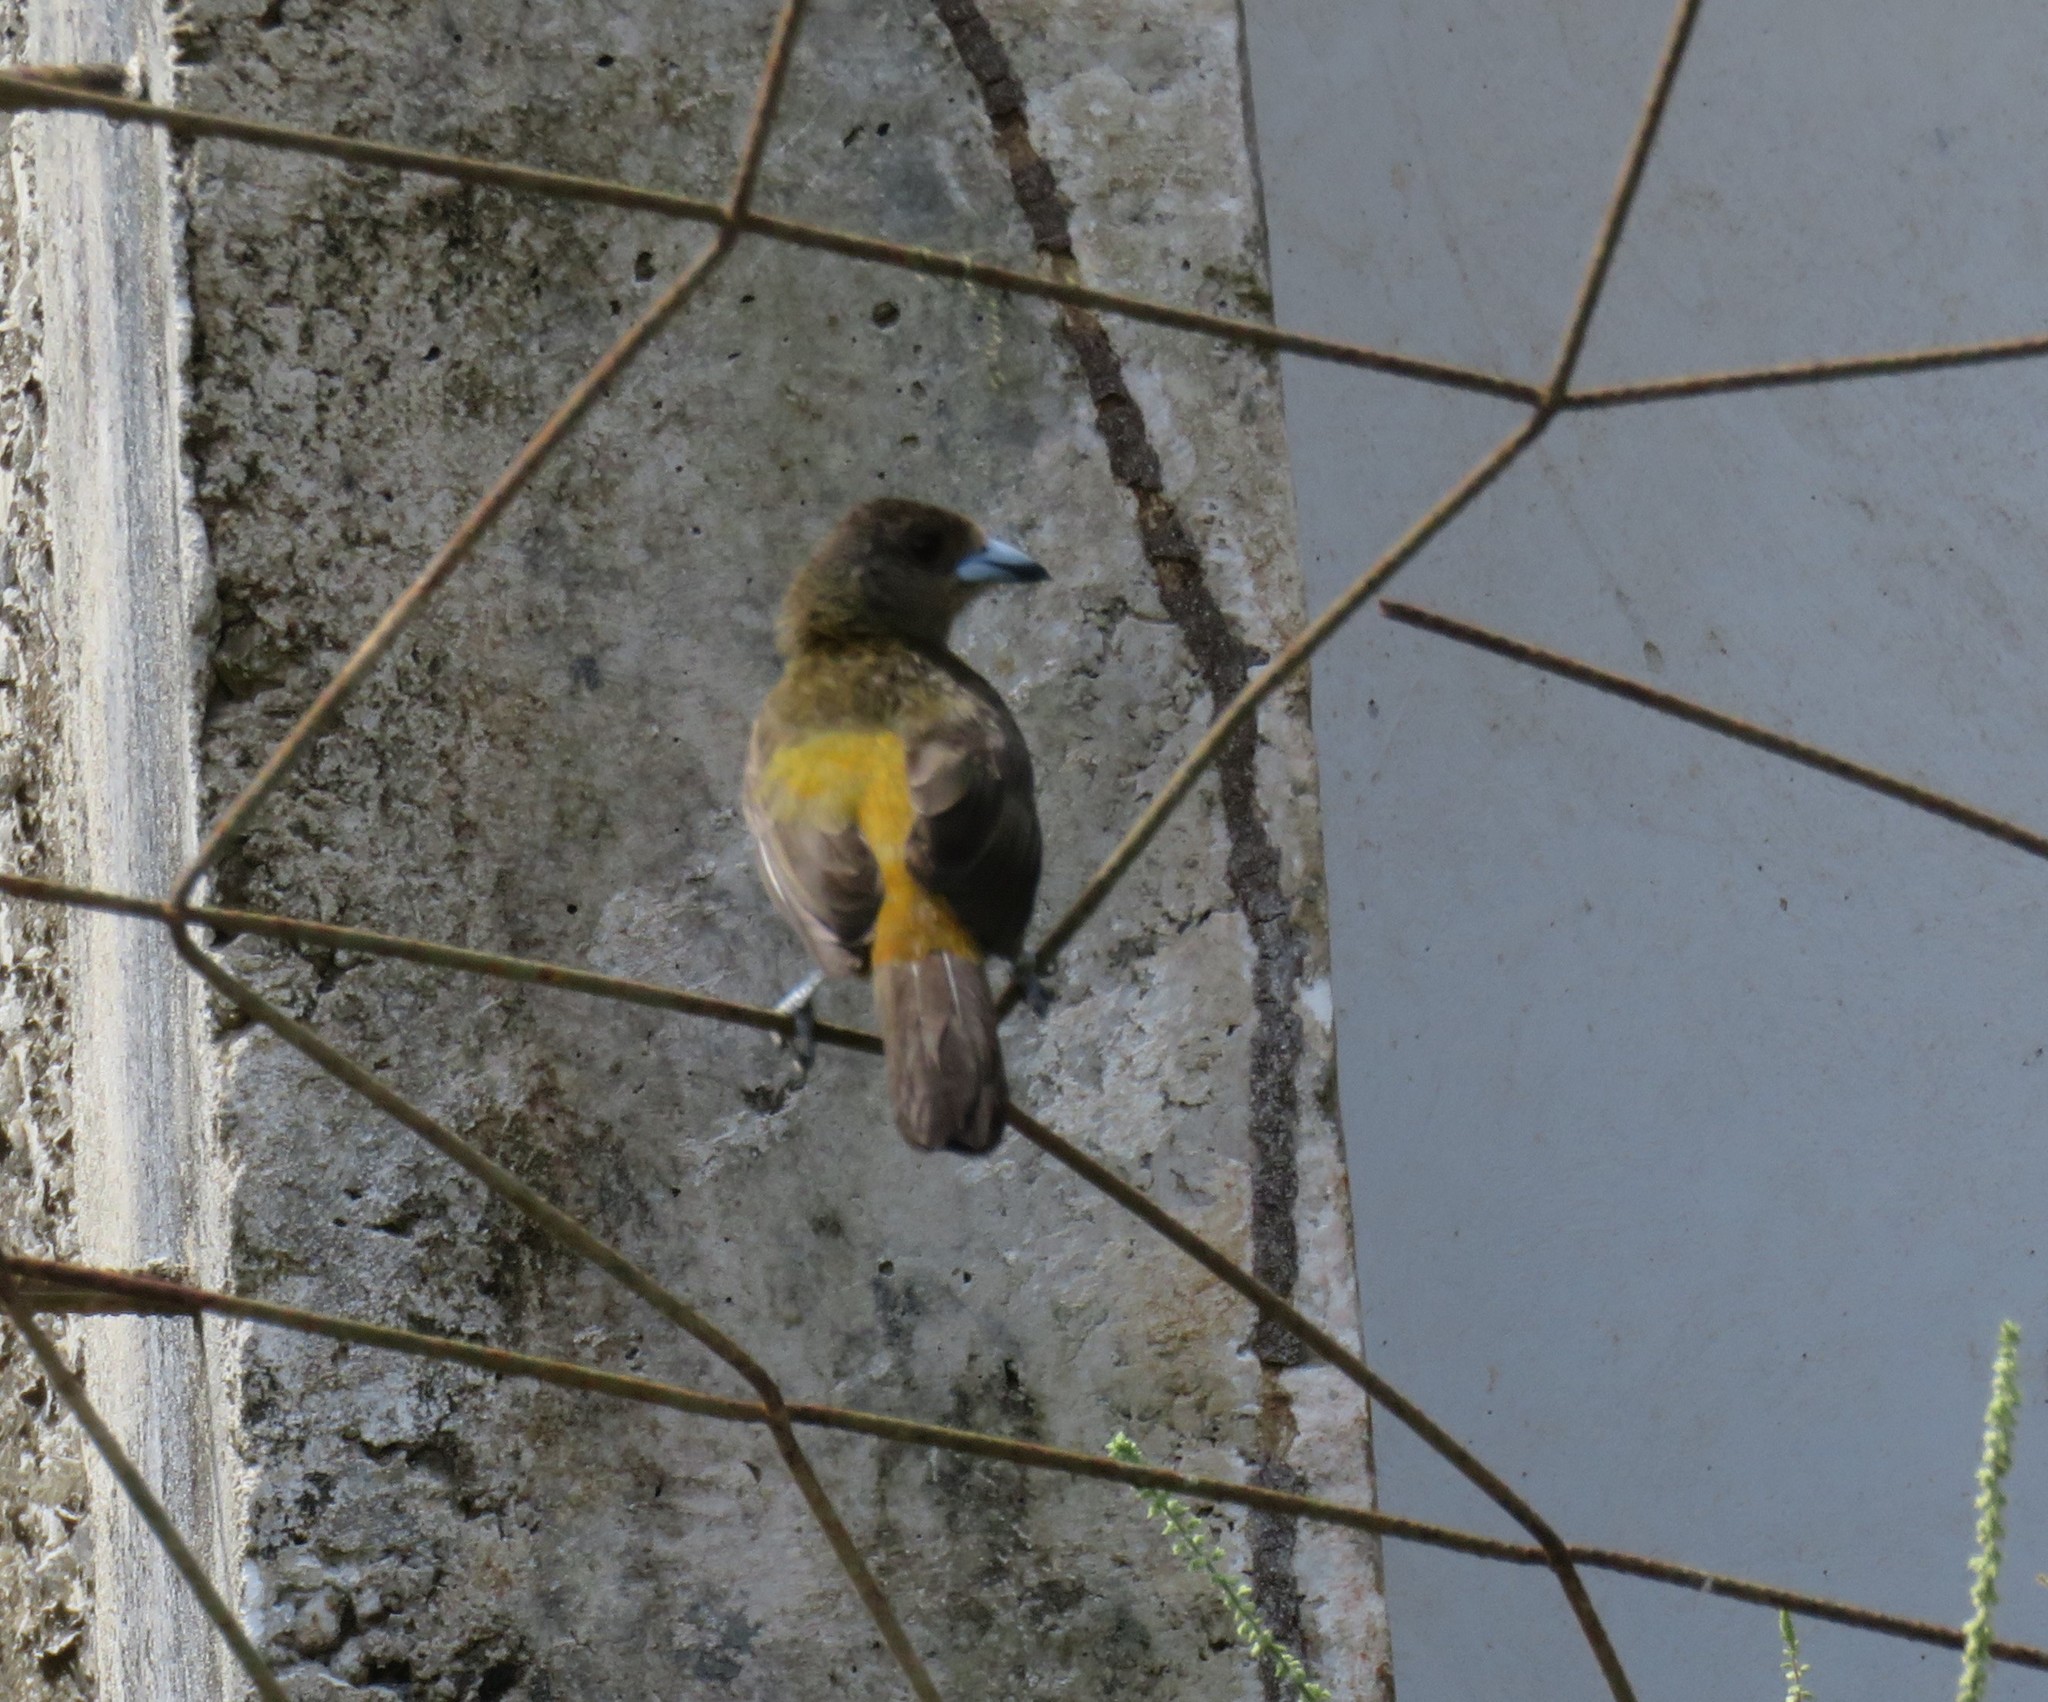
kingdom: Animalia
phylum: Chordata
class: Aves
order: Passeriformes
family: Thraupidae
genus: Ramphocelus
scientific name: Ramphocelus passerinii
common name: Passerini's tanager
